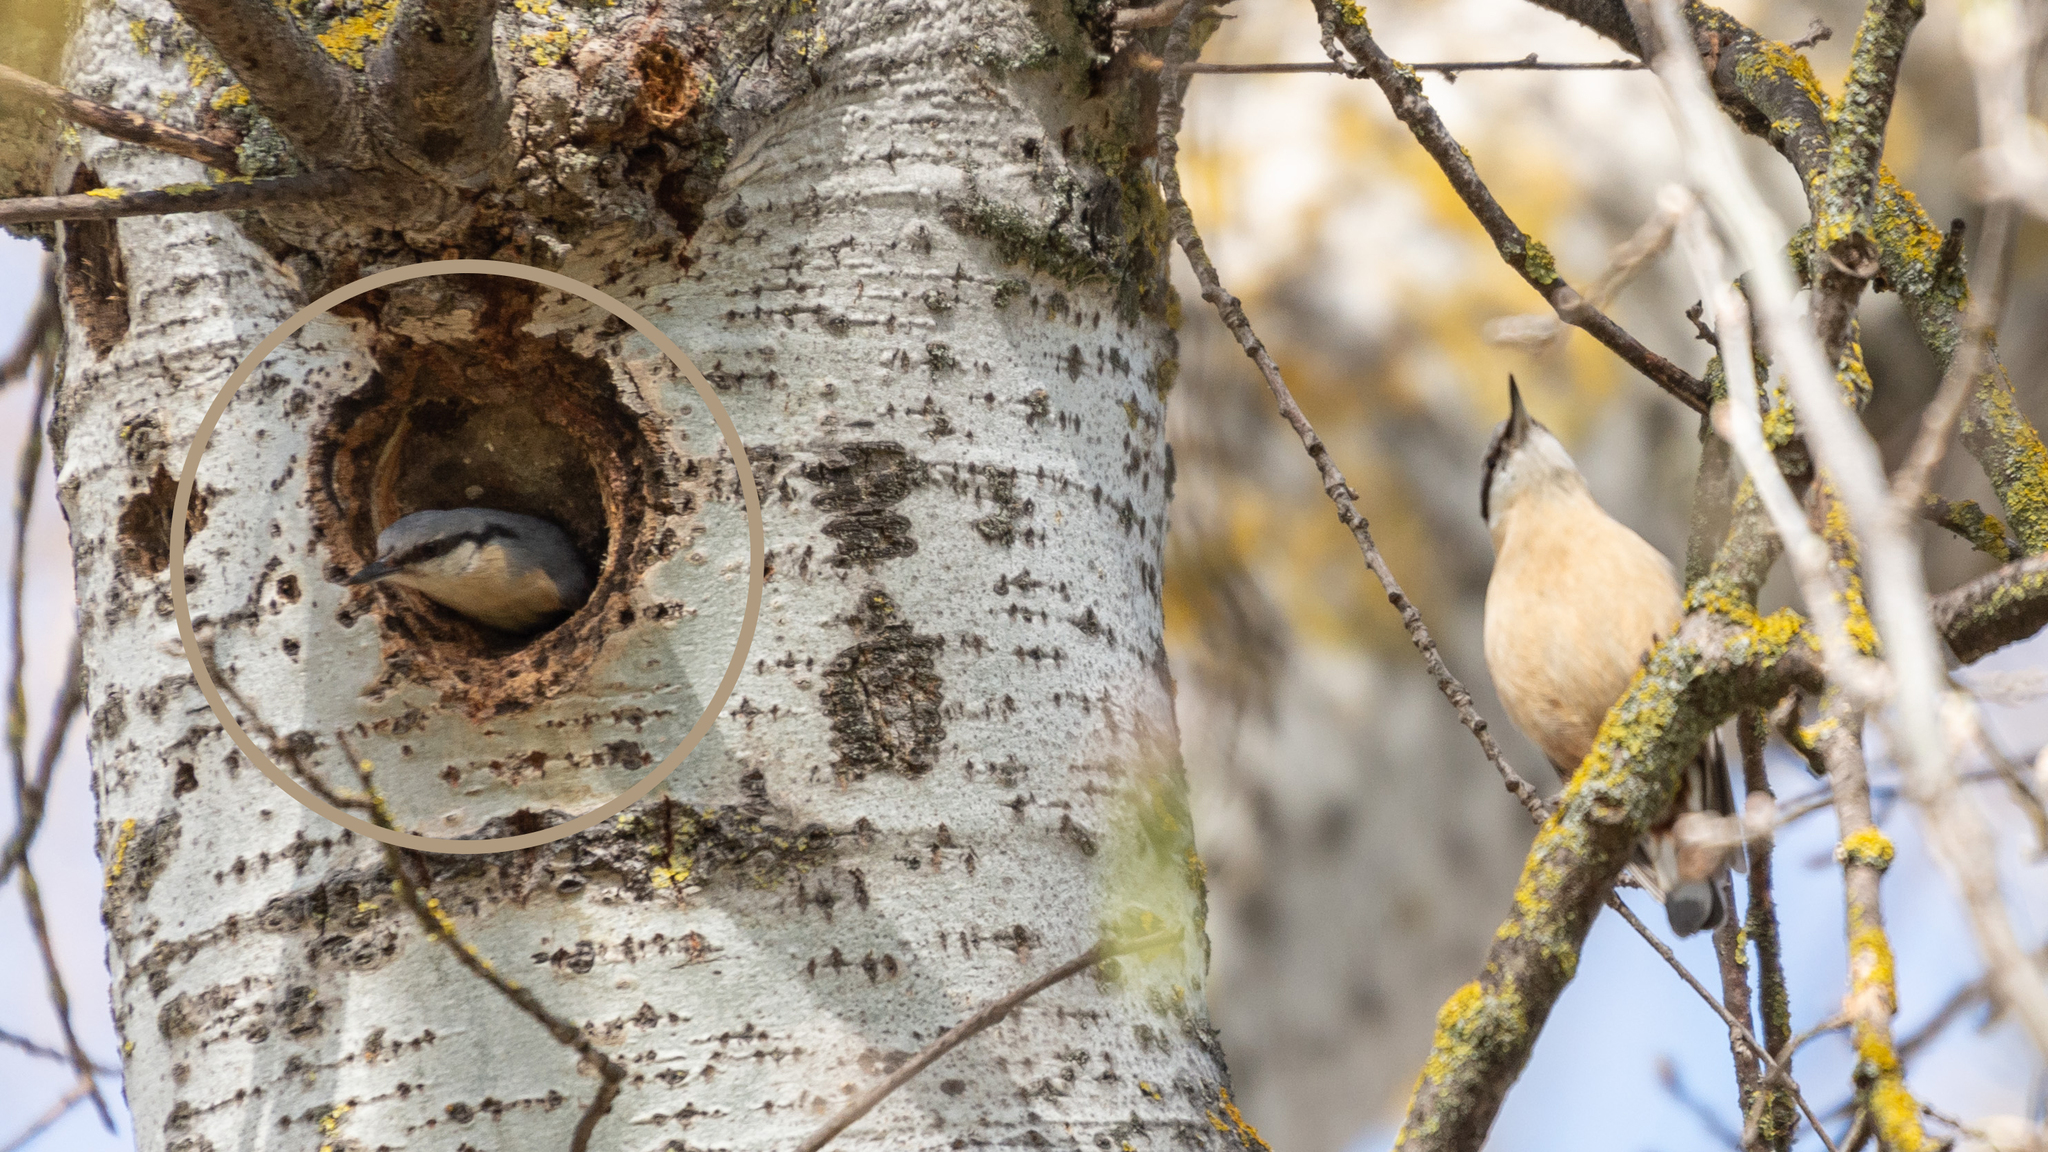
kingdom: Animalia
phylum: Chordata
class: Aves
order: Passeriformes
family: Sittidae
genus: Sitta
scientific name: Sitta europaea
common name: Eurasian nuthatch
